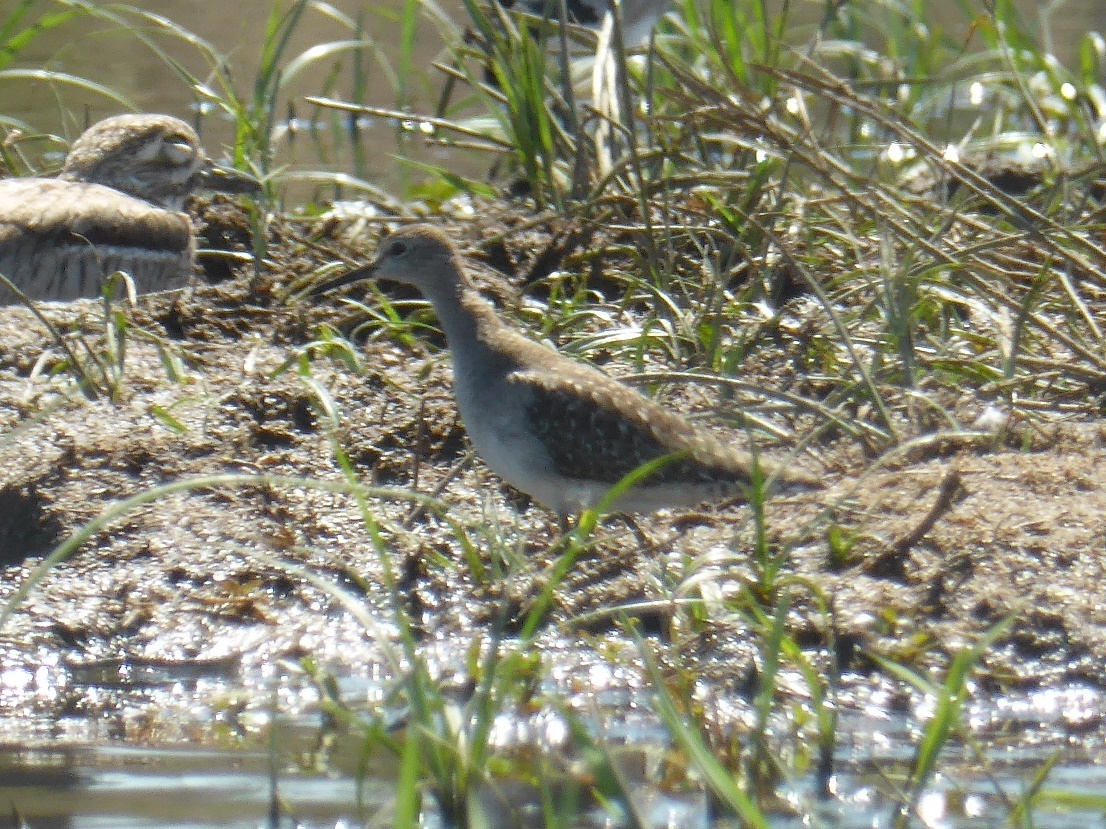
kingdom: Animalia
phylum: Chordata
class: Aves
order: Charadriiformes
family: Scolopacidae
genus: Tringa
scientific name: Tringa glareola
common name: Wood sandpiper
